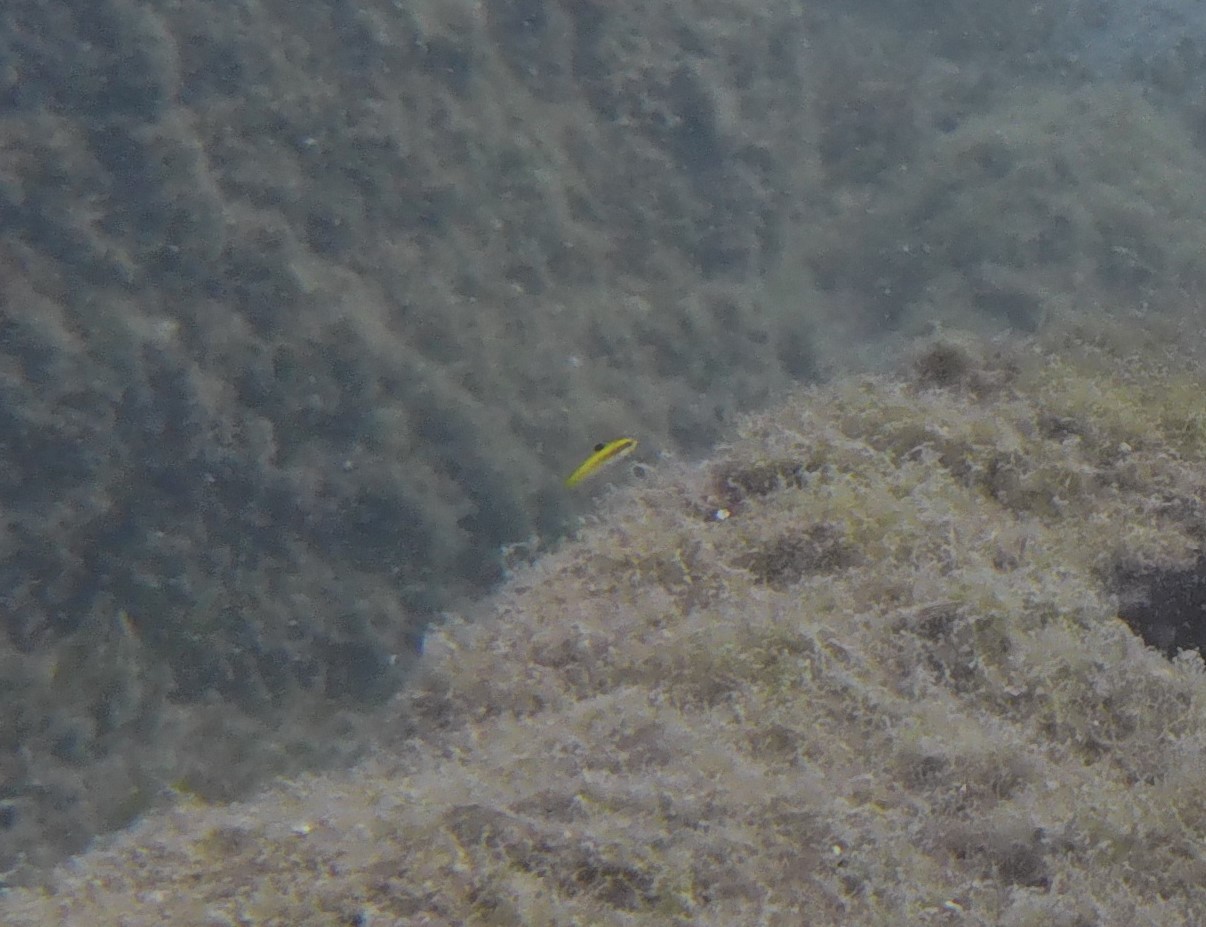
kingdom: Animalia
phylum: Chordata
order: Perciformes
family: Labridae
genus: Thalassoma
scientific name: Thalassoma bifasciatum
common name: Bluehead wrasse
